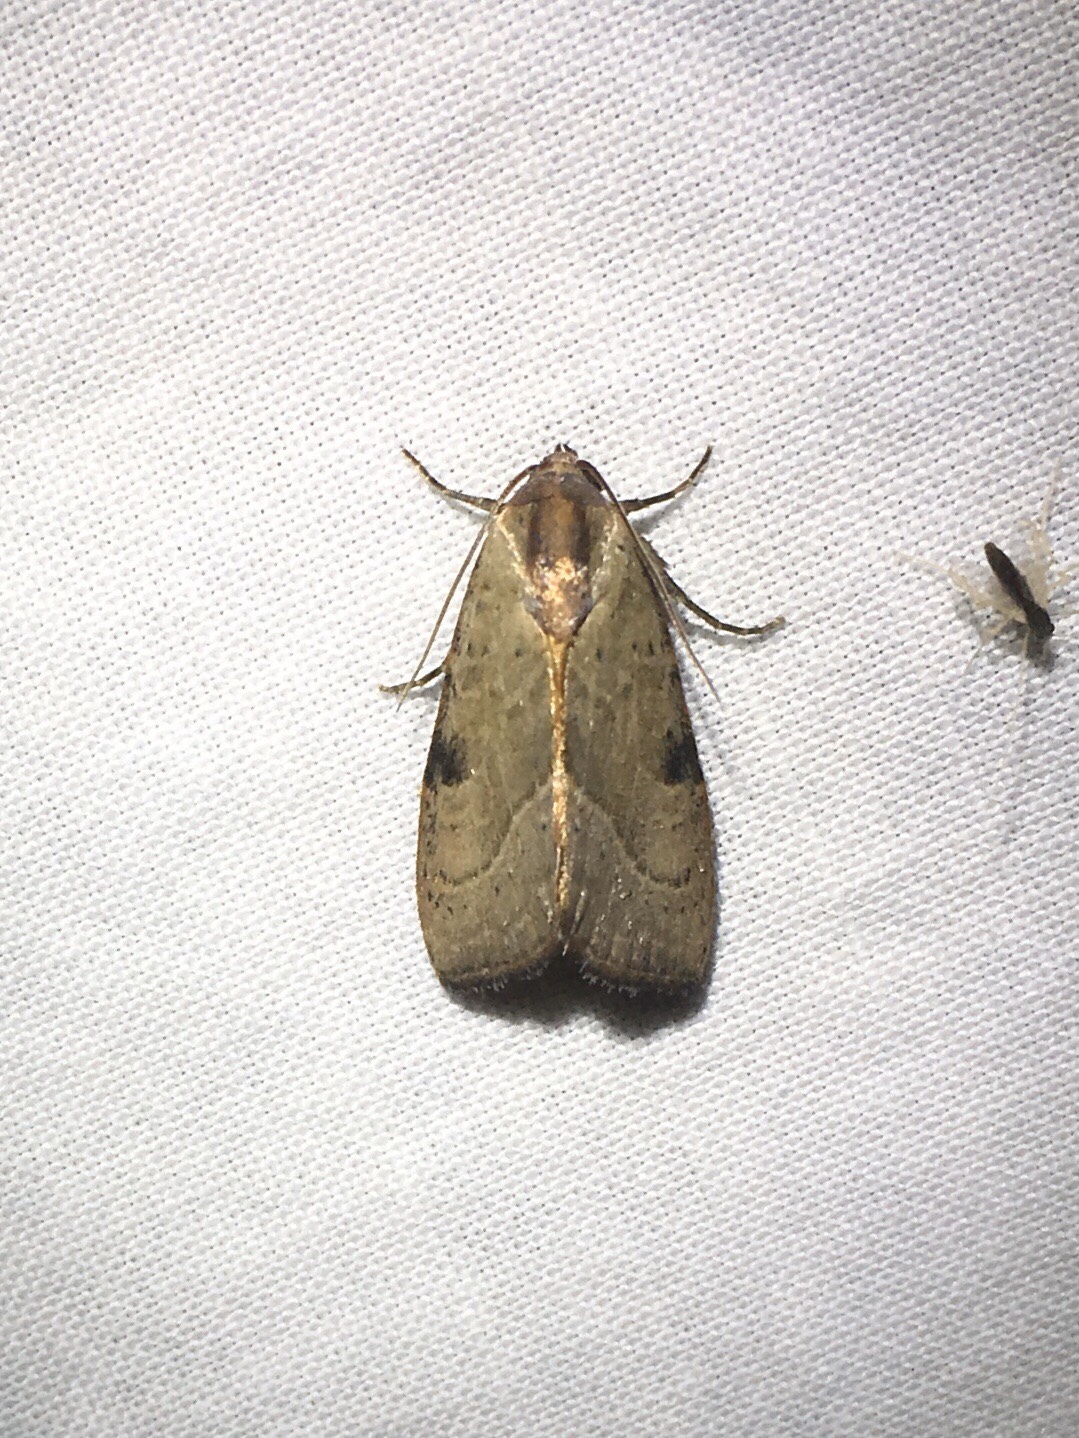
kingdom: Animalia
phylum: Arthropoda
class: Insecta
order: Lepidoptera
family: Noctuidae
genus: Galgula
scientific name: Galgula partita
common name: Wedgeling
